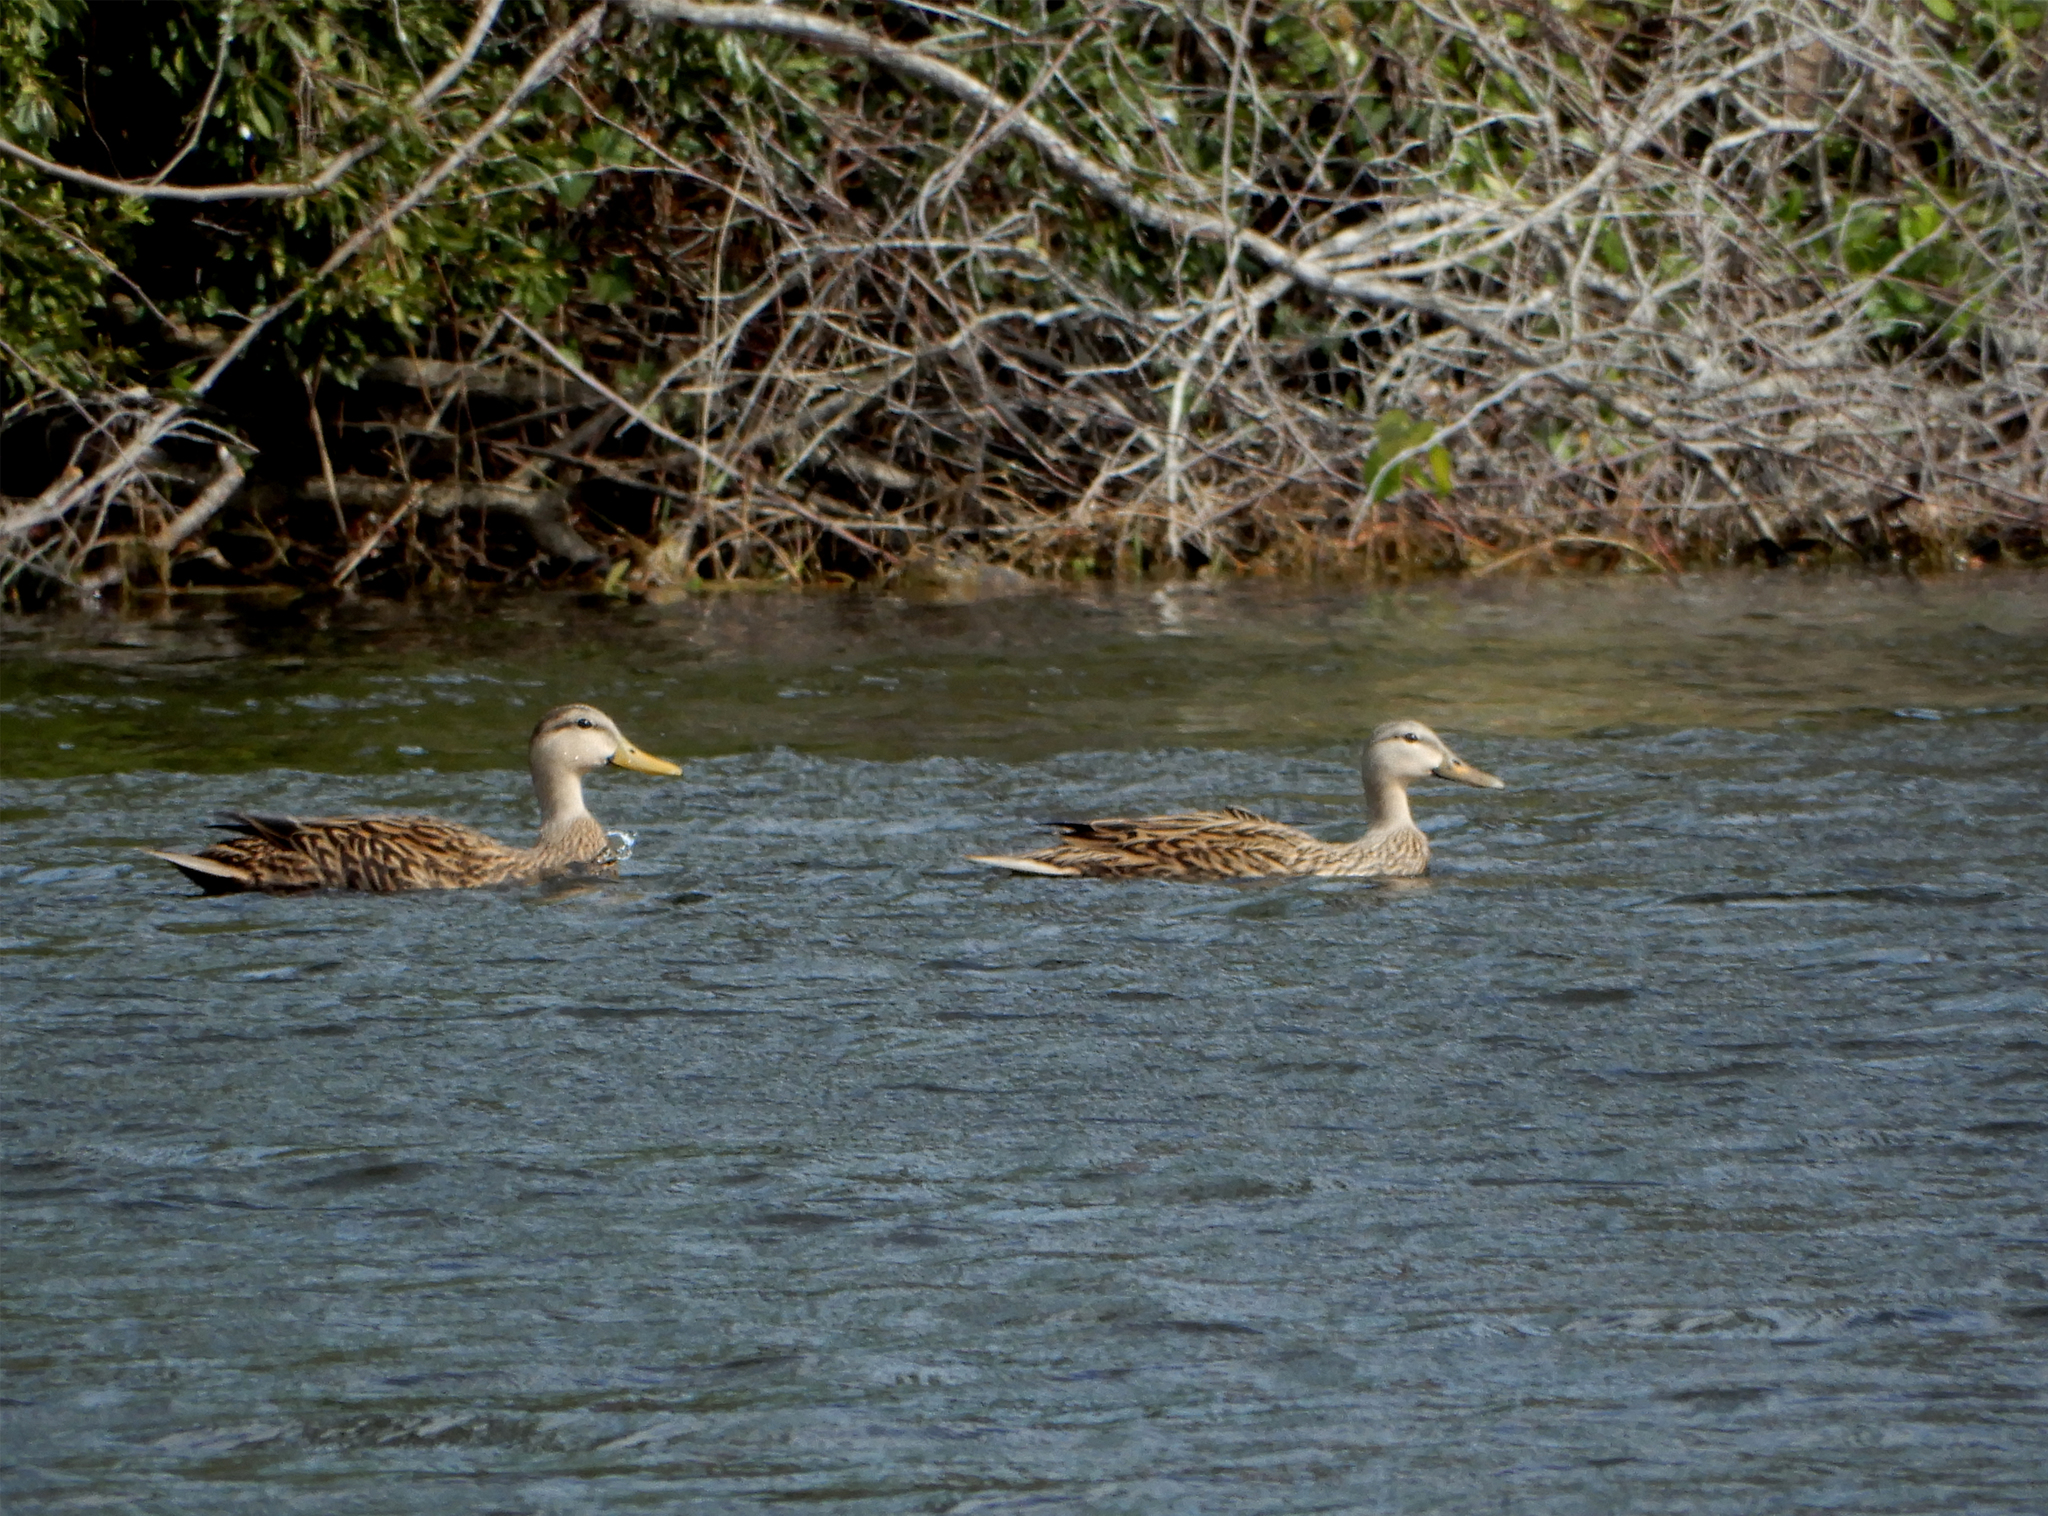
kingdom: Animalia
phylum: Chordata
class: Aves
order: Anseriformes
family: Anatidae
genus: Anas
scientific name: Anas
